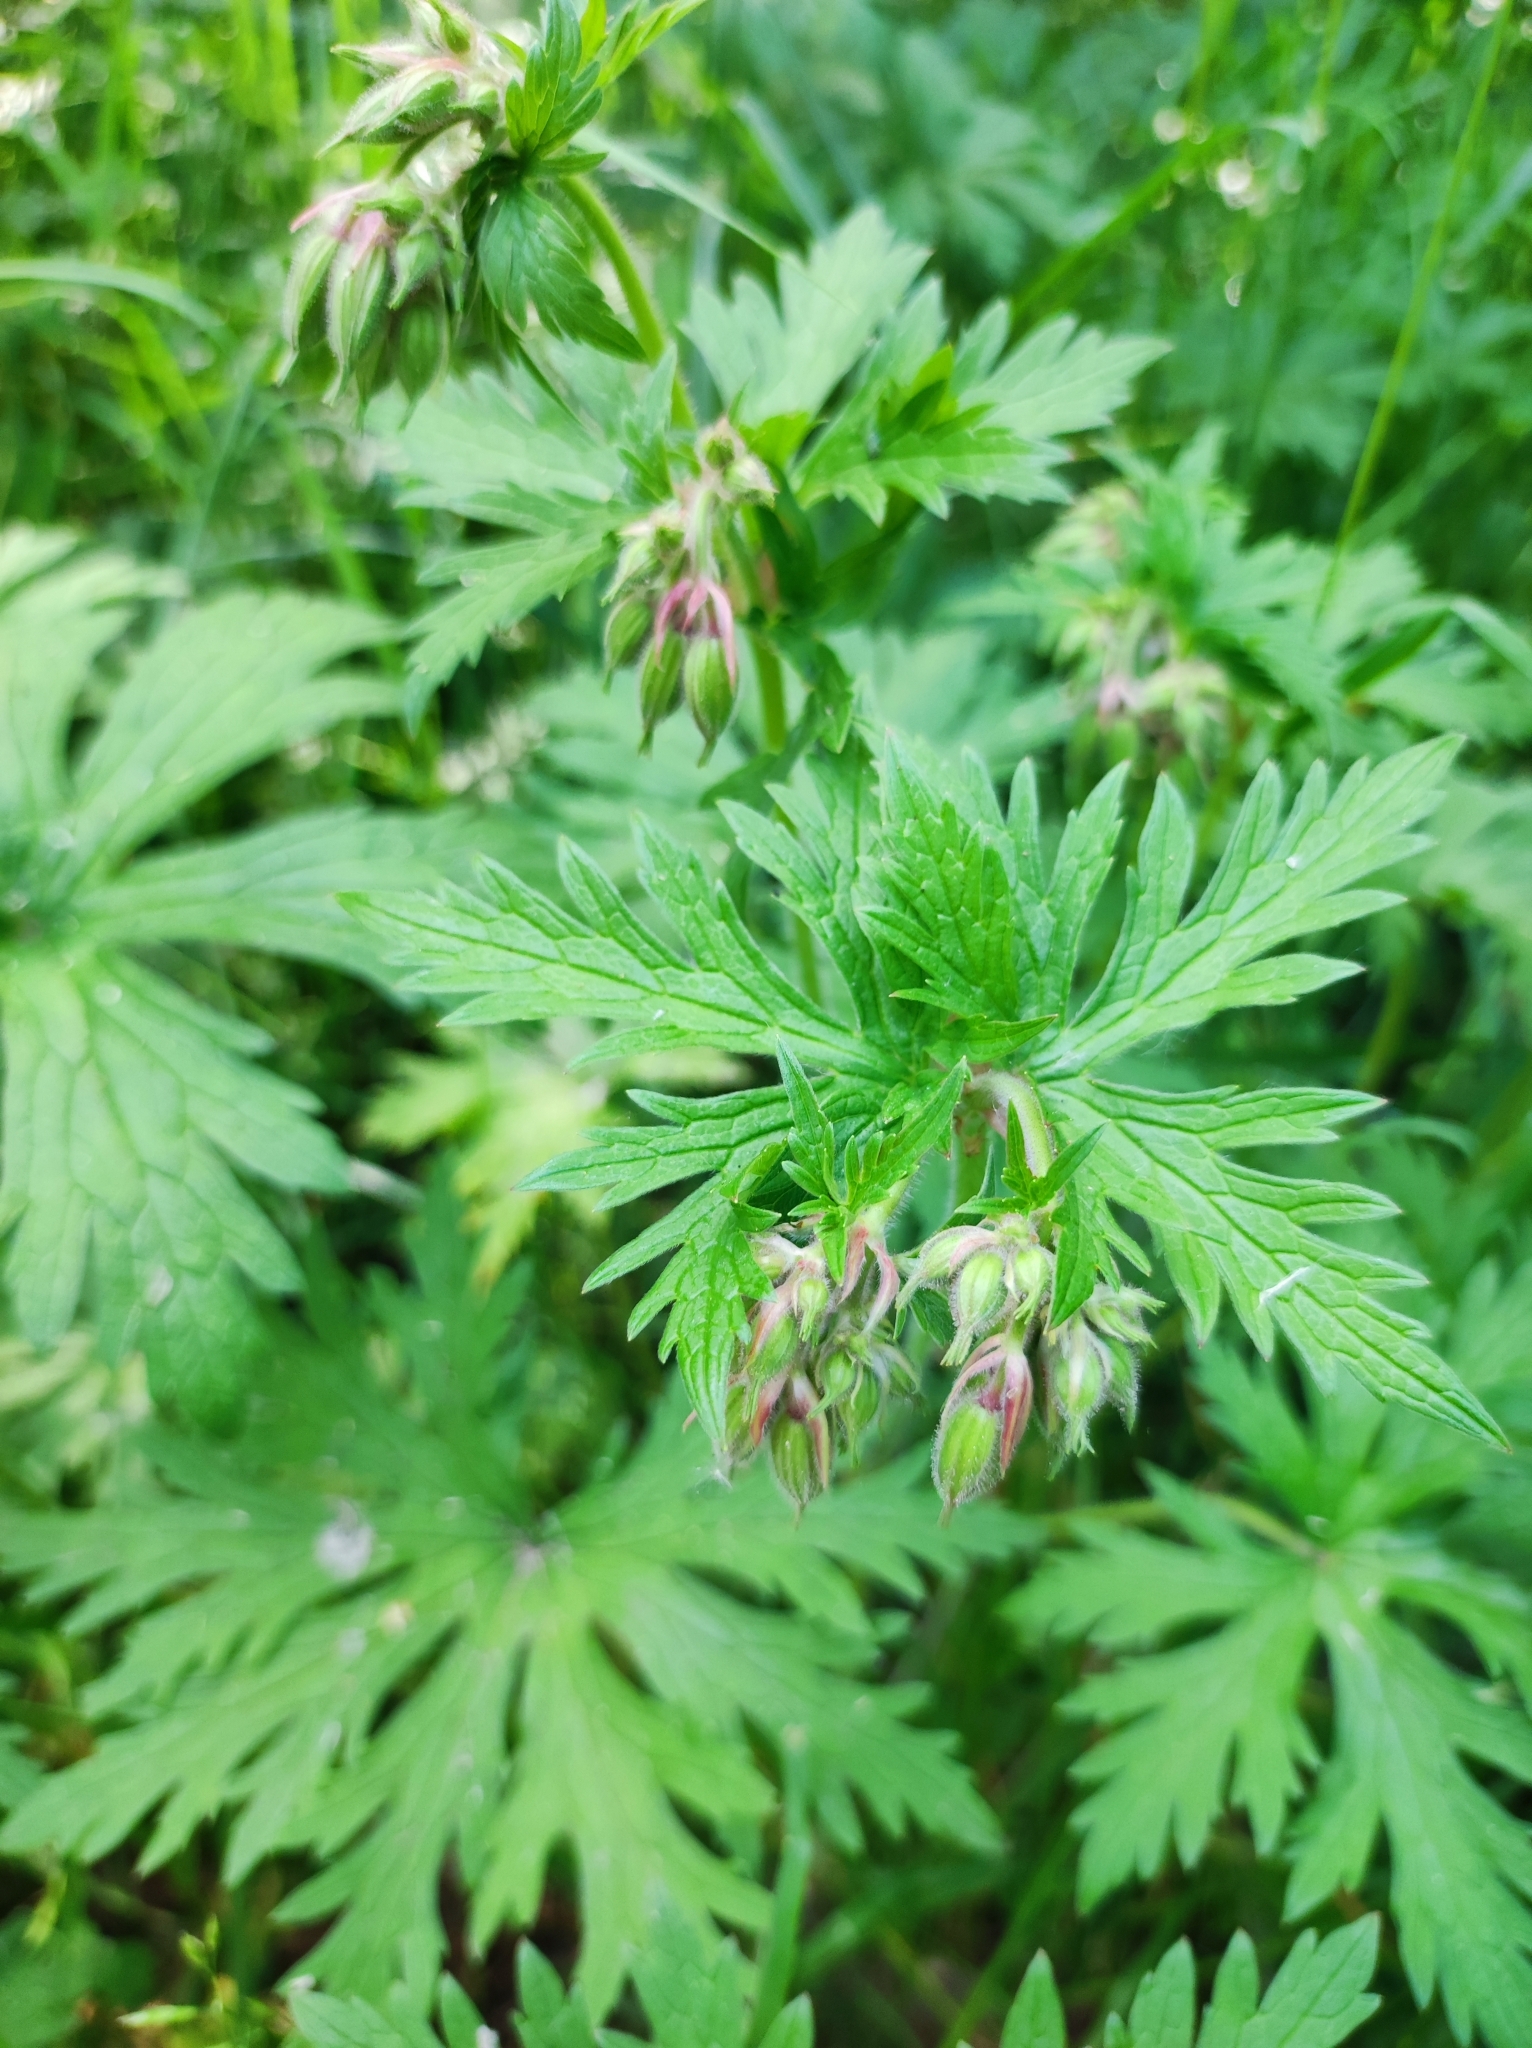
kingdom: Plantae
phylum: Tracheophyta
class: Magnoliopsida
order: Geraniales
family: Geraniaceae
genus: Geranium
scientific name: Geranium pratense
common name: Meadow crane's-bill
